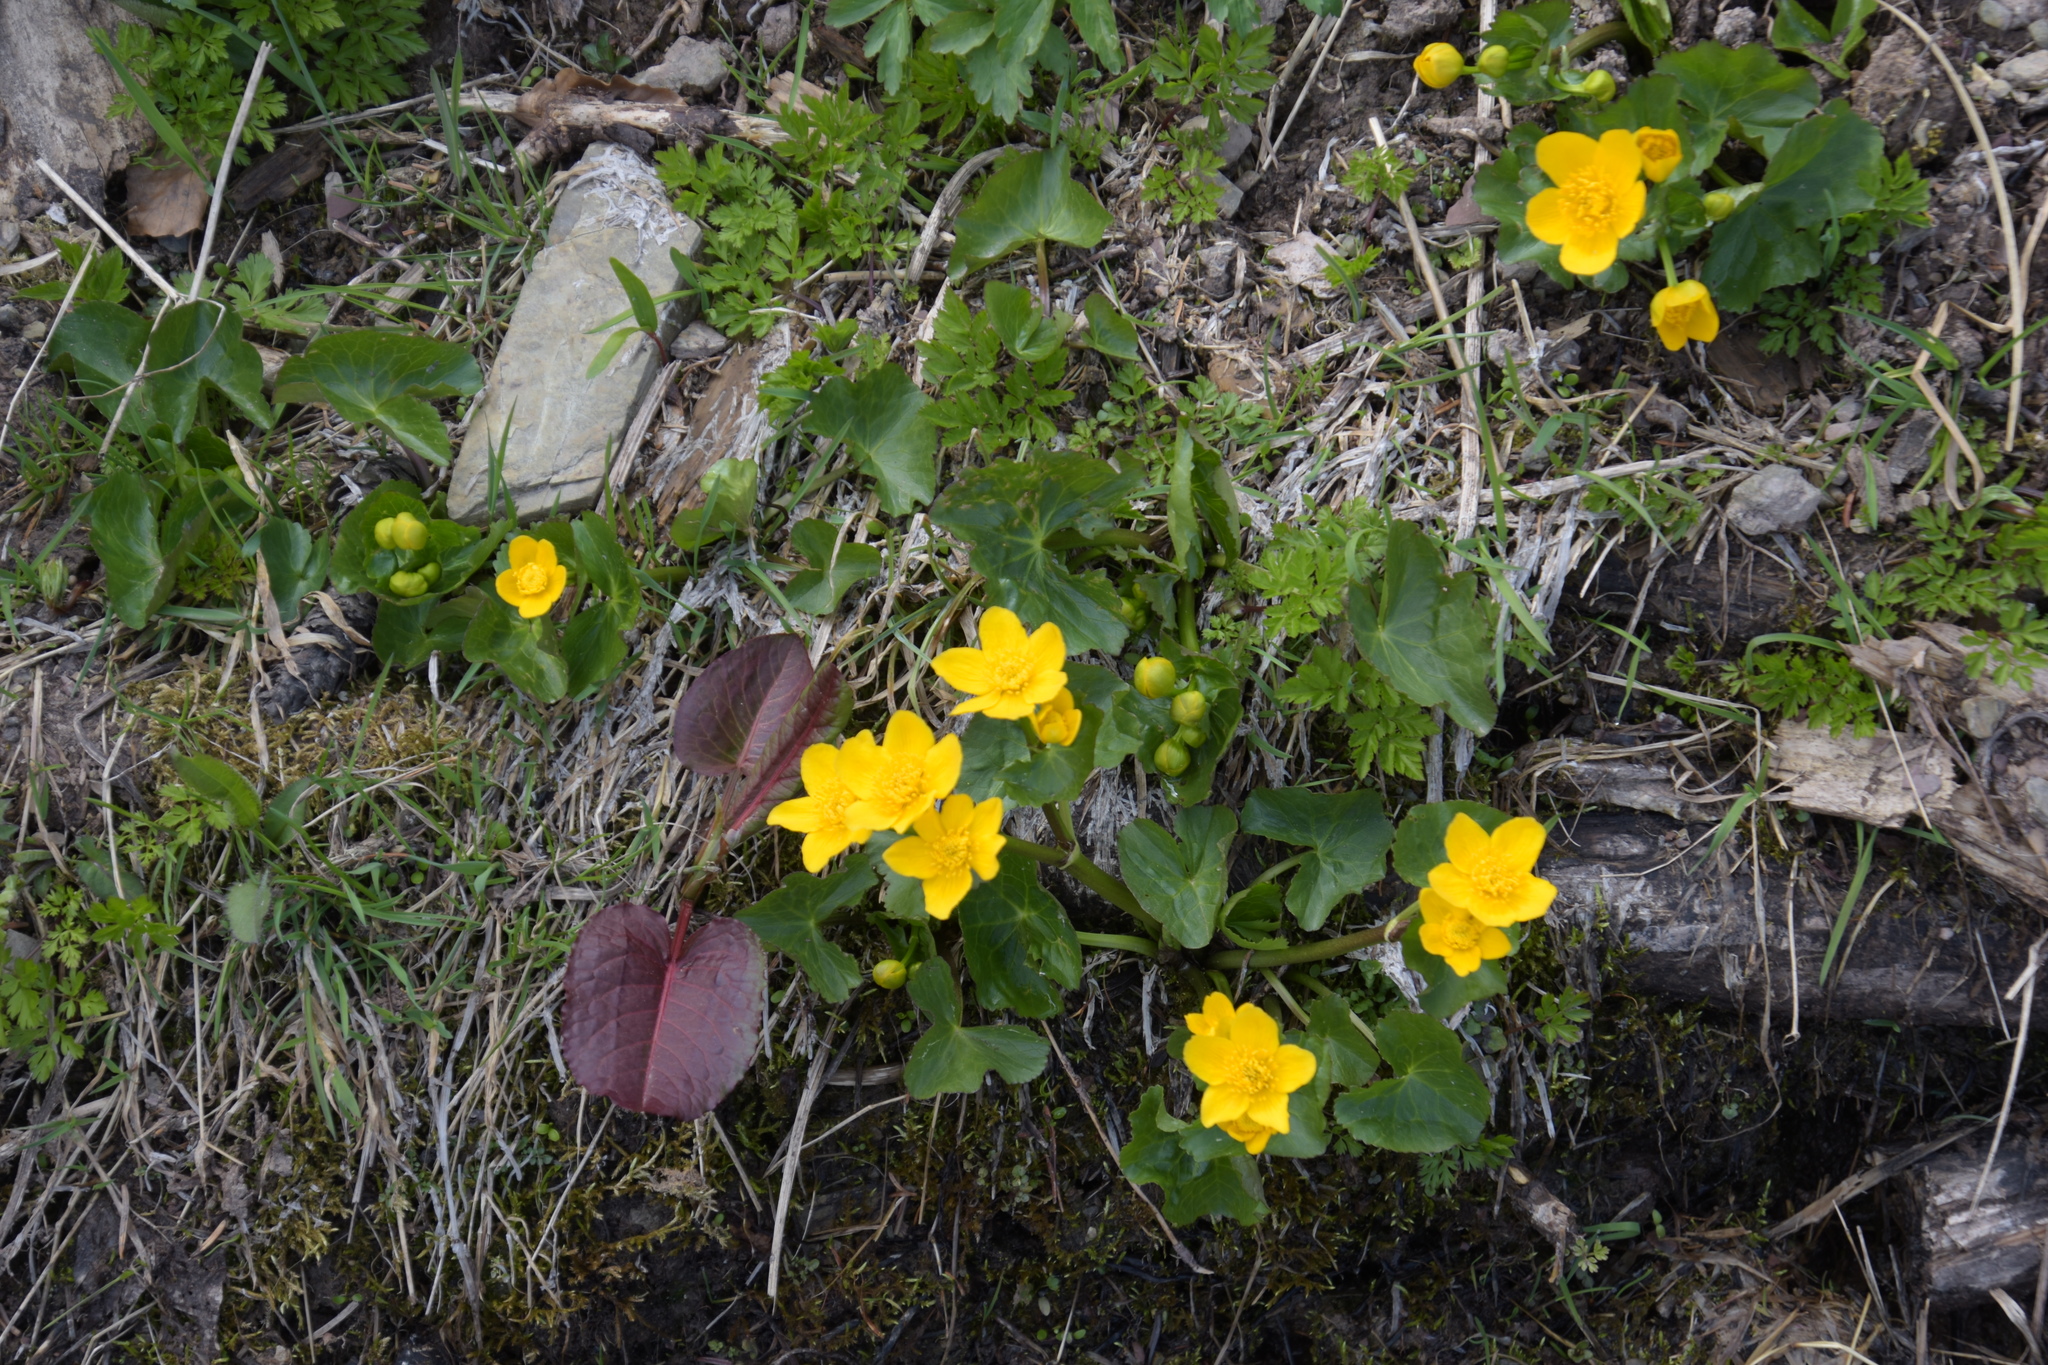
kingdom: Plantae
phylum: Tracheophyta
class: Magnoliopsida
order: Ranunculales
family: Ranunculaceae
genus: Caltha
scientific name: Caltha palustris
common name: Marsh marigold
